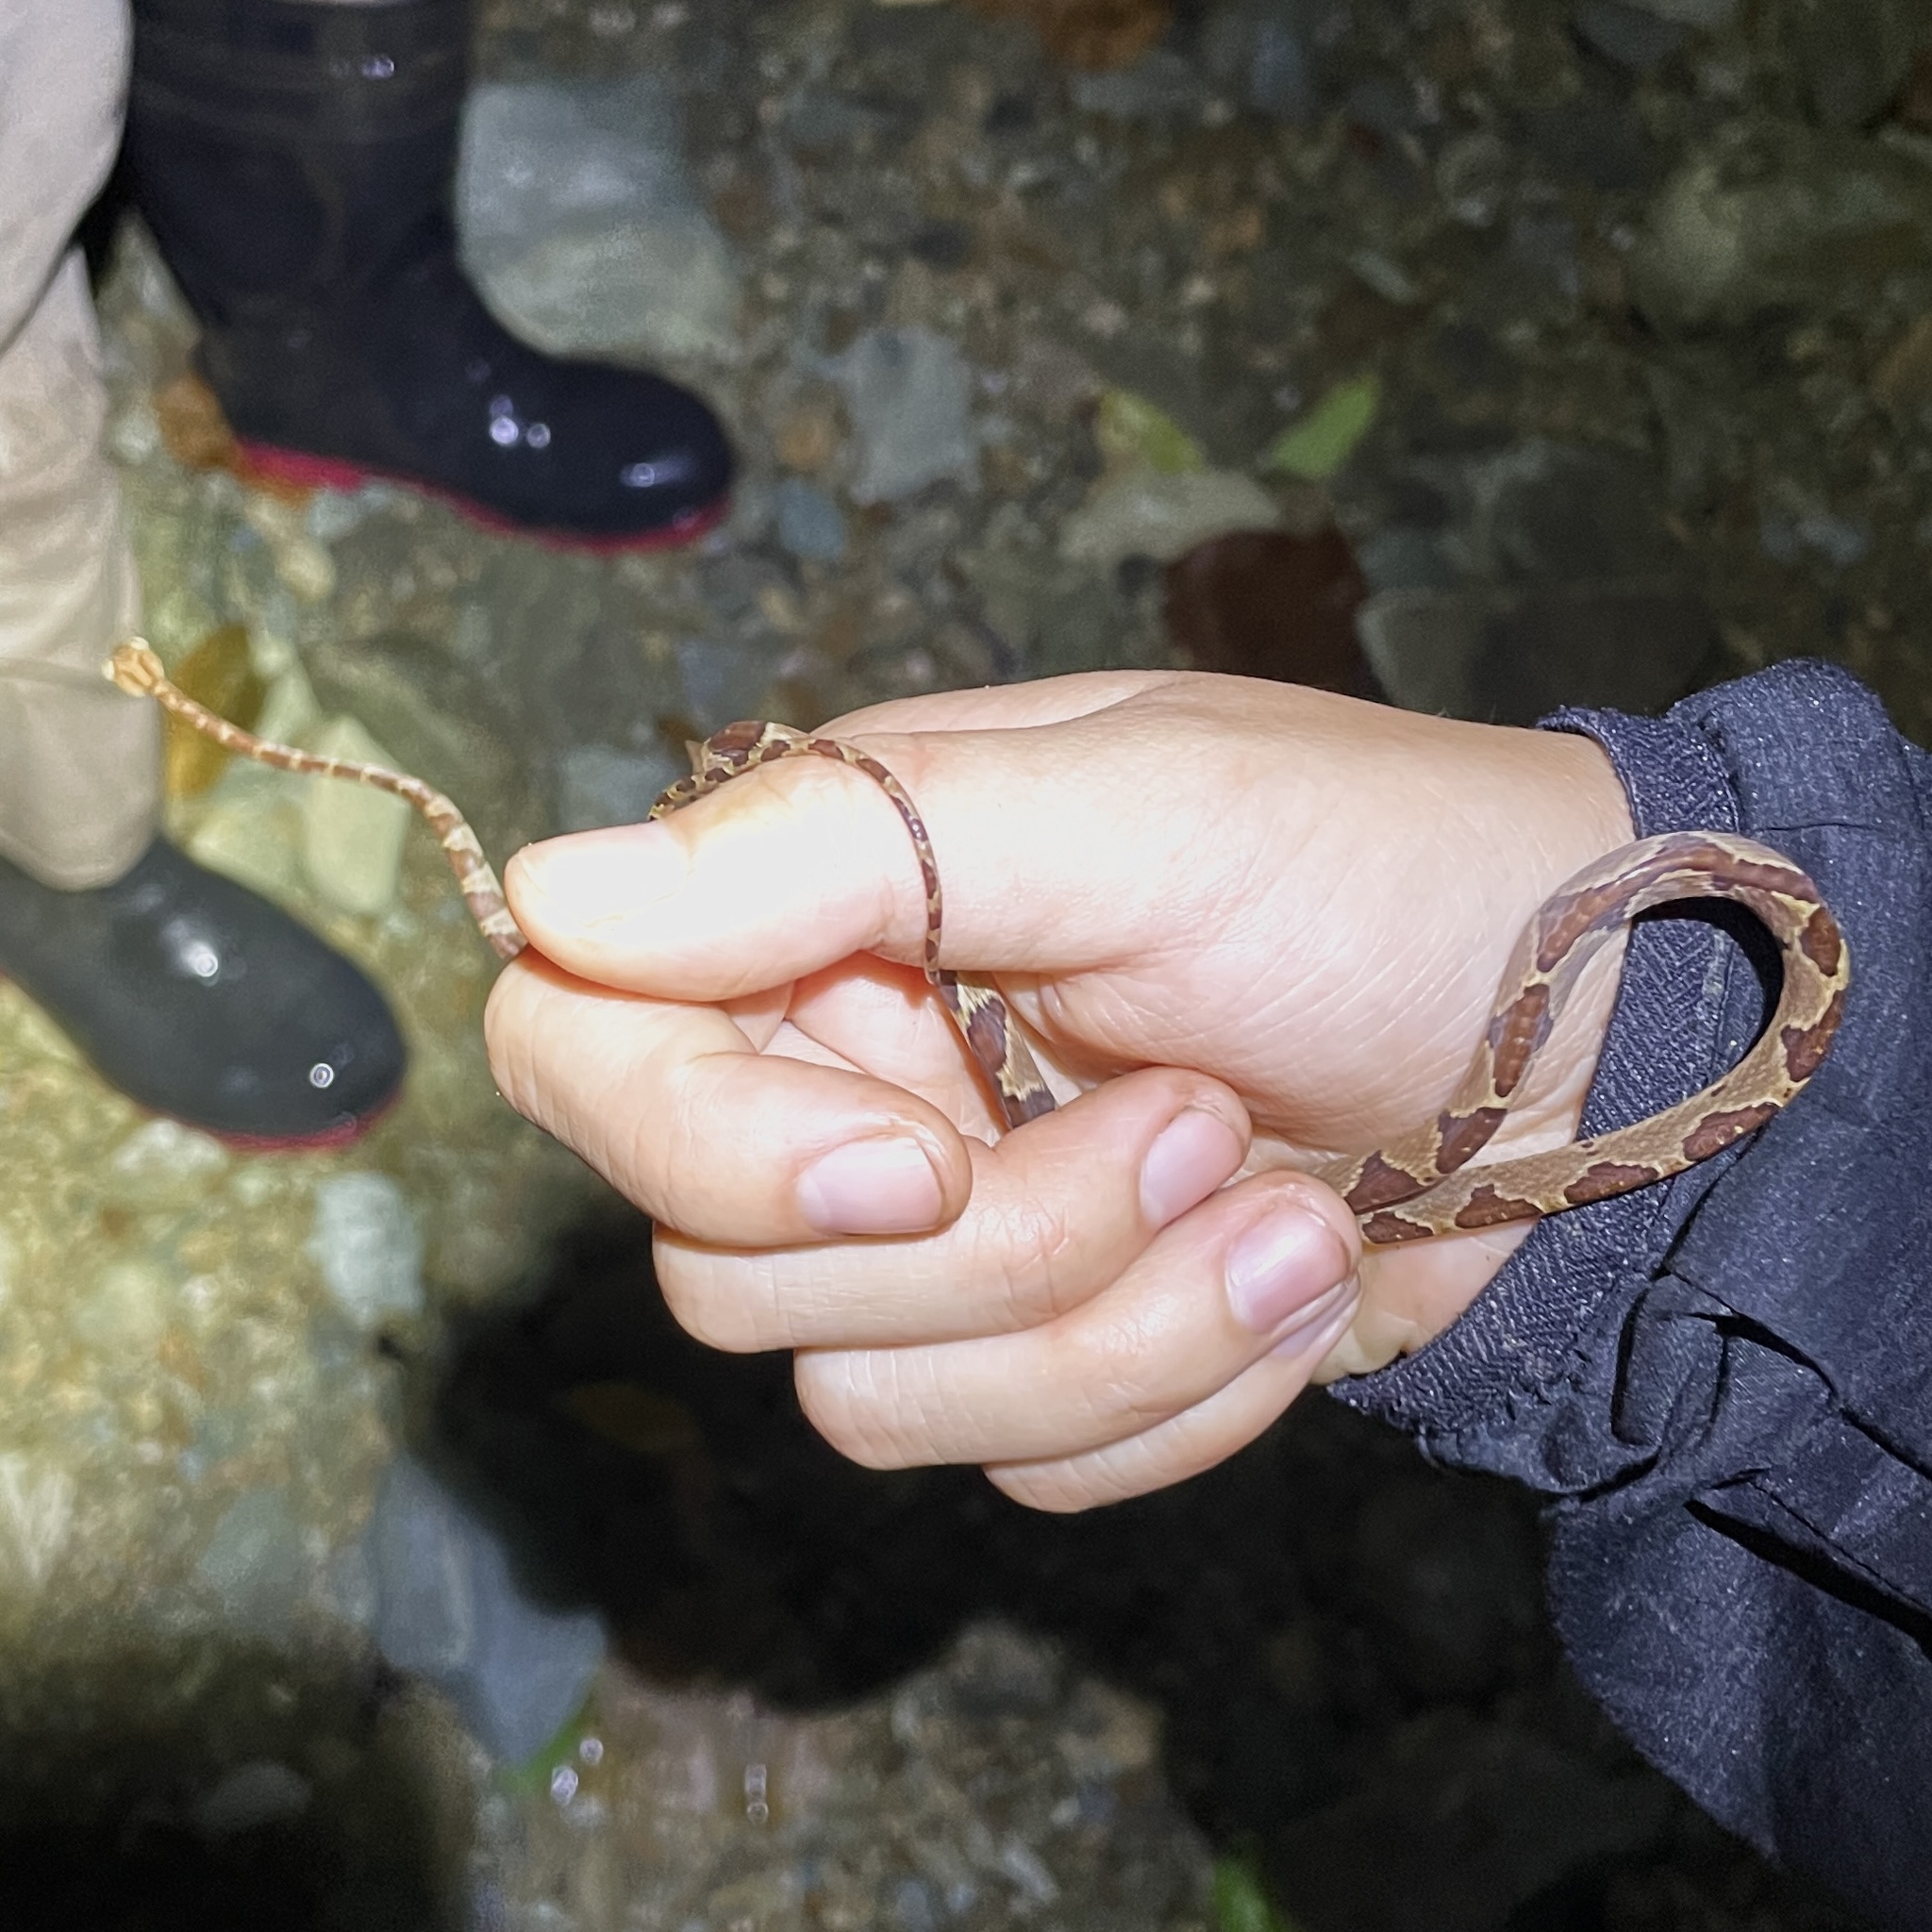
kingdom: Animalia
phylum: Chordata
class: Squamata
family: Colubridae
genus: Imantodes
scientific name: Imantodes cenchoa
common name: Blunthead tree snake
